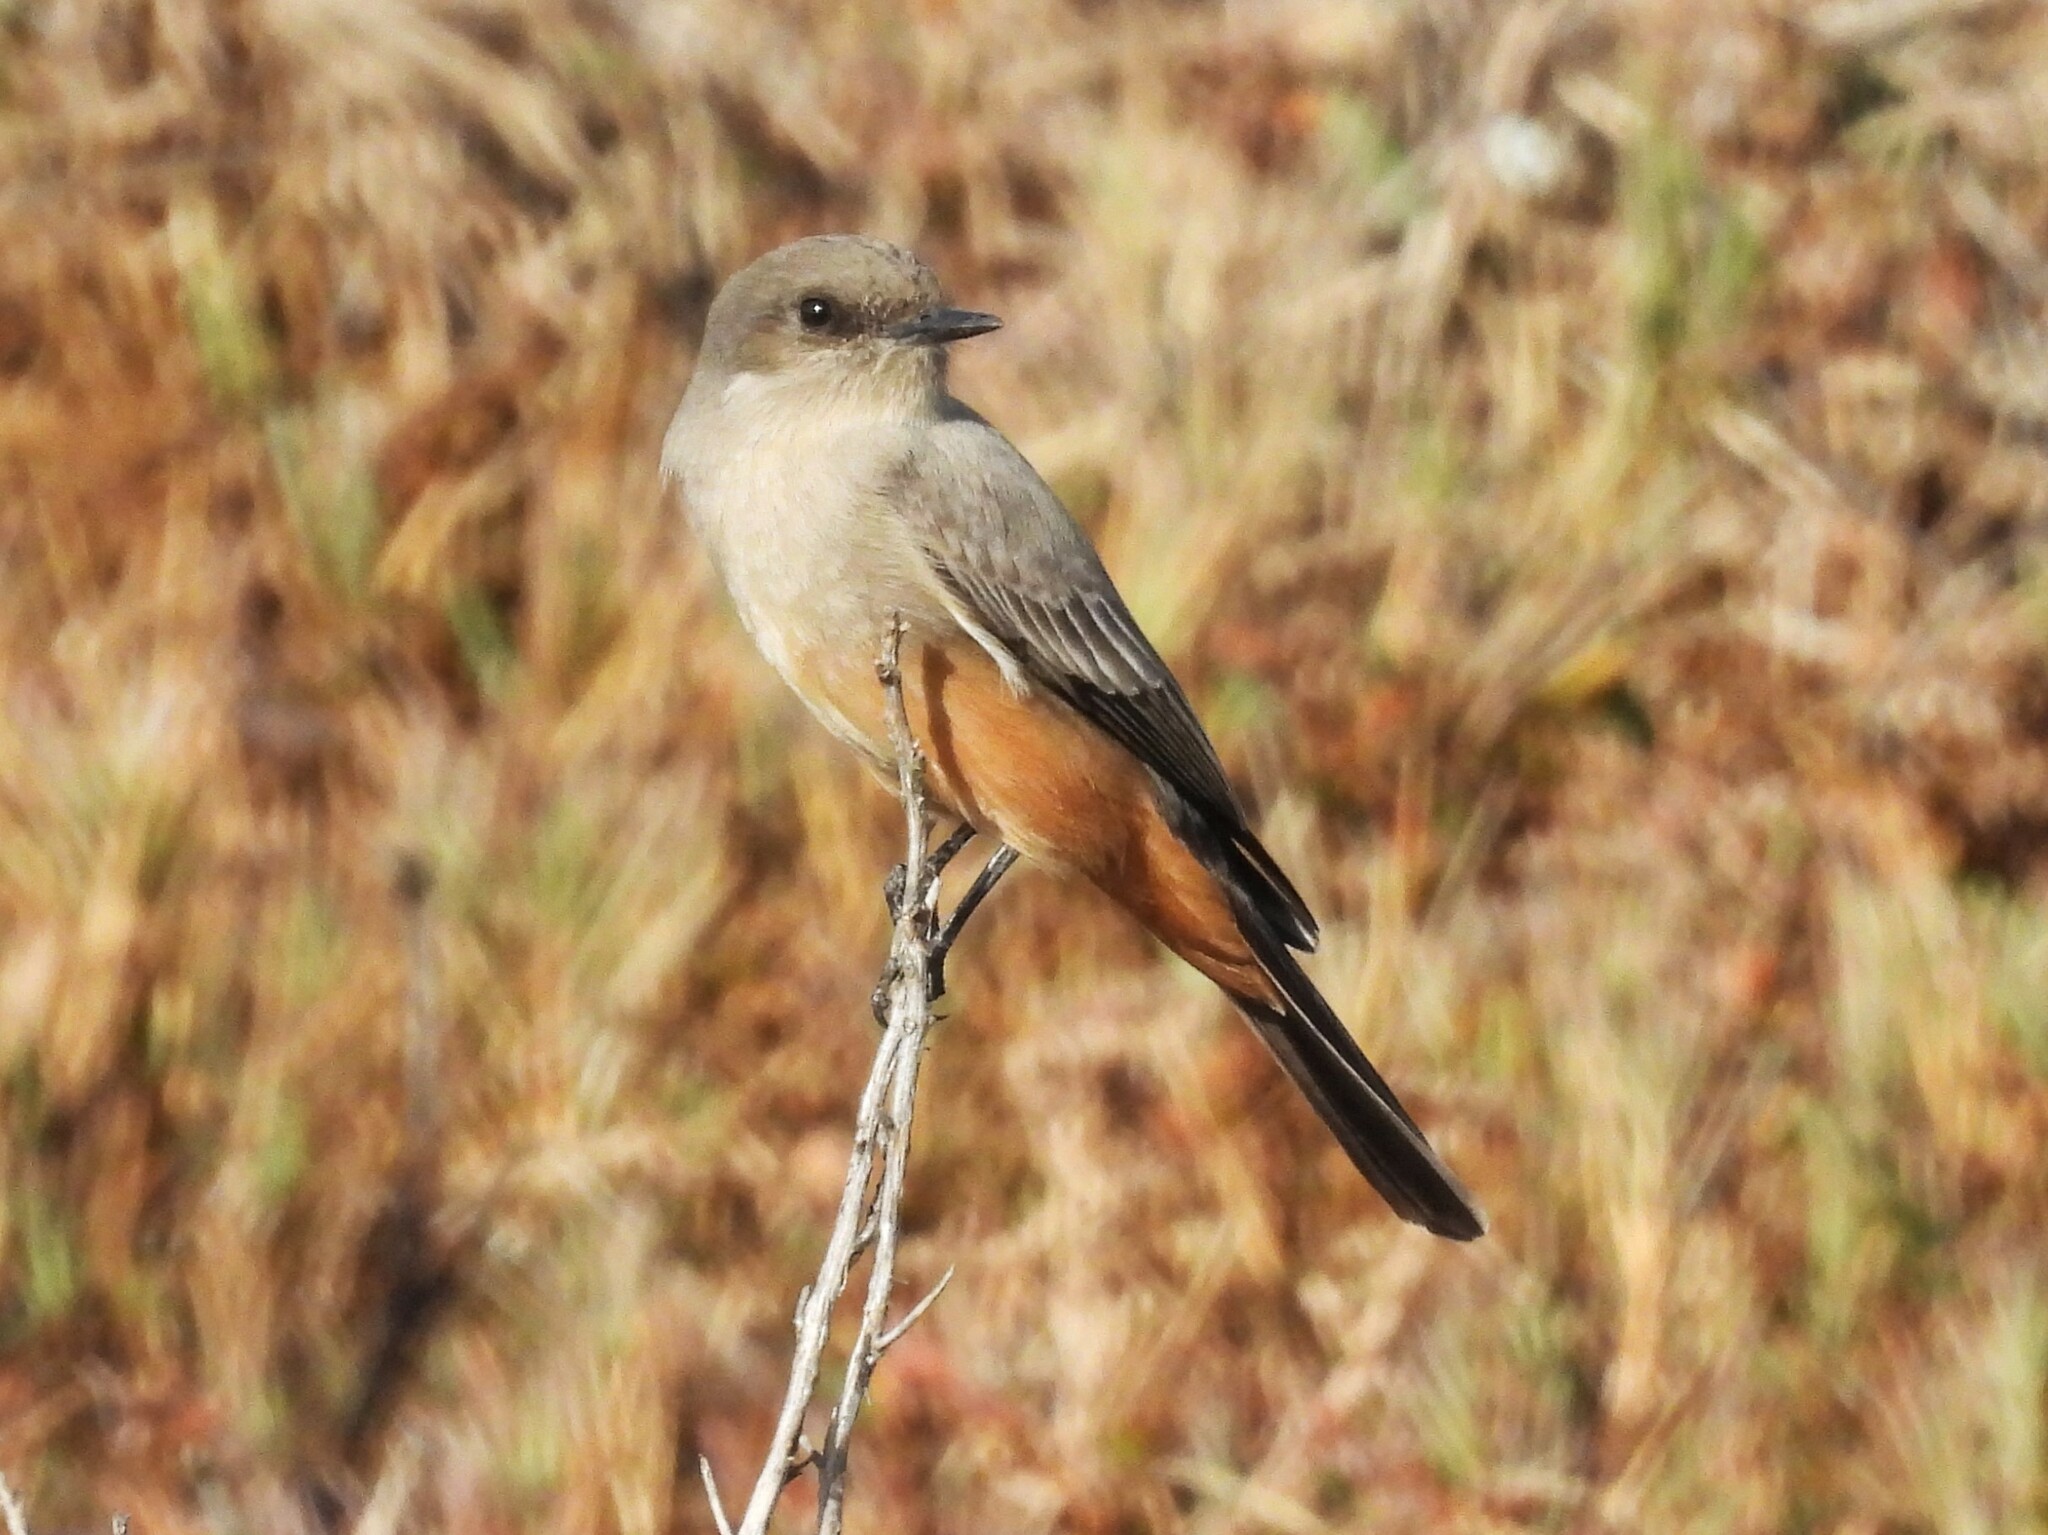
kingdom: Animalia
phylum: Chordata
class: Aves
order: Passeriformes
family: Tyrannidae
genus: Sayornis
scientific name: Sayornis saya
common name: Say's phoebe
